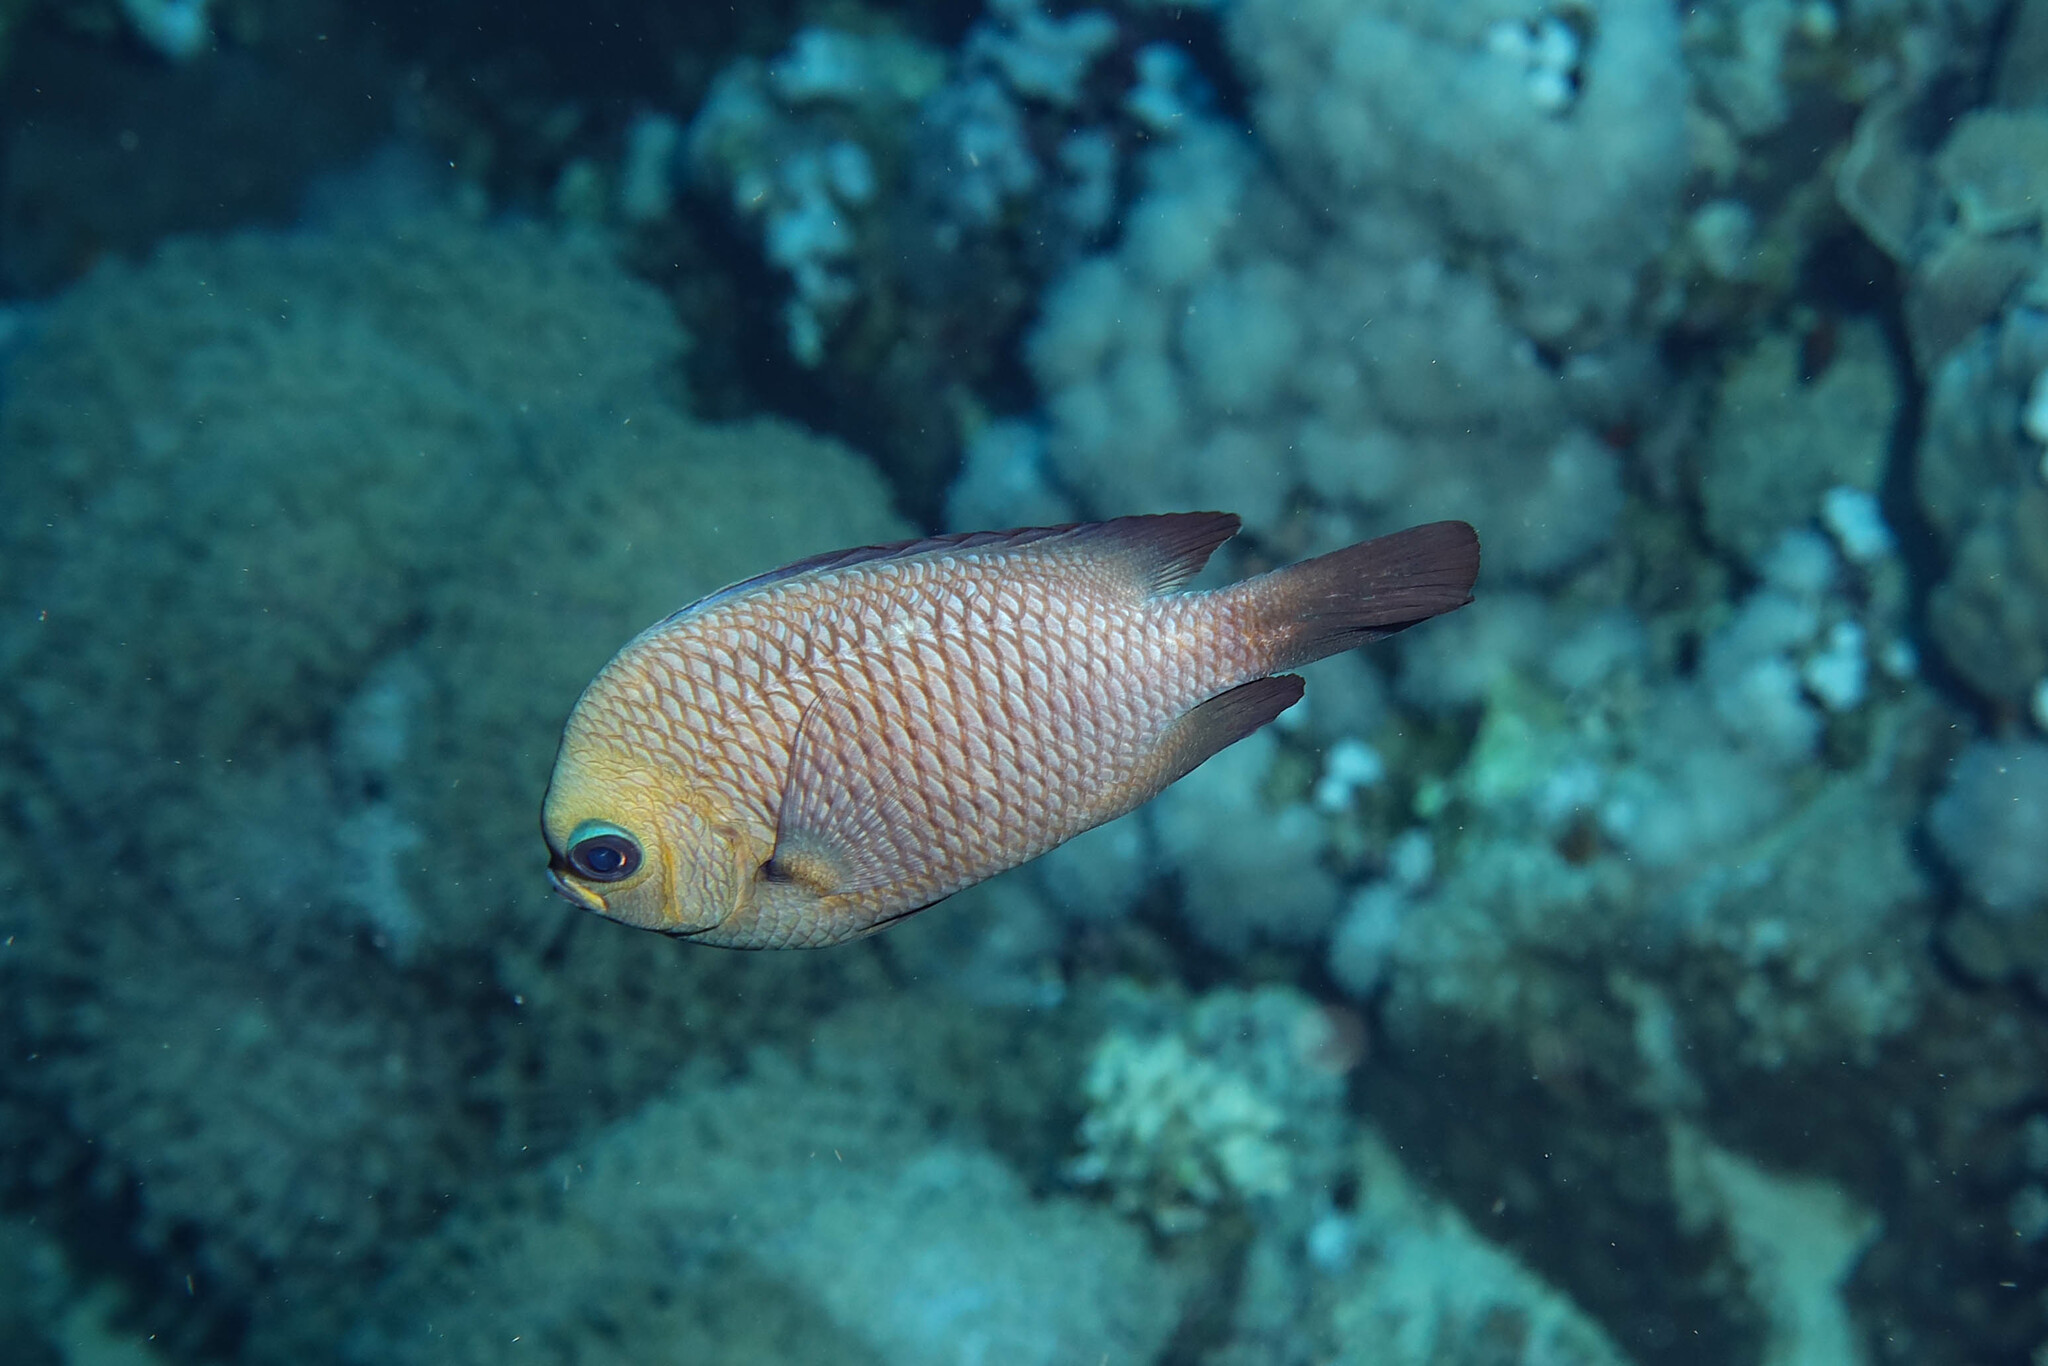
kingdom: Animalia
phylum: Chordata
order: Perciformes
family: Pomacentridae
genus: Dascyllus
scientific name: Dascyllus trimaculatus
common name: Threespot dascyllus
